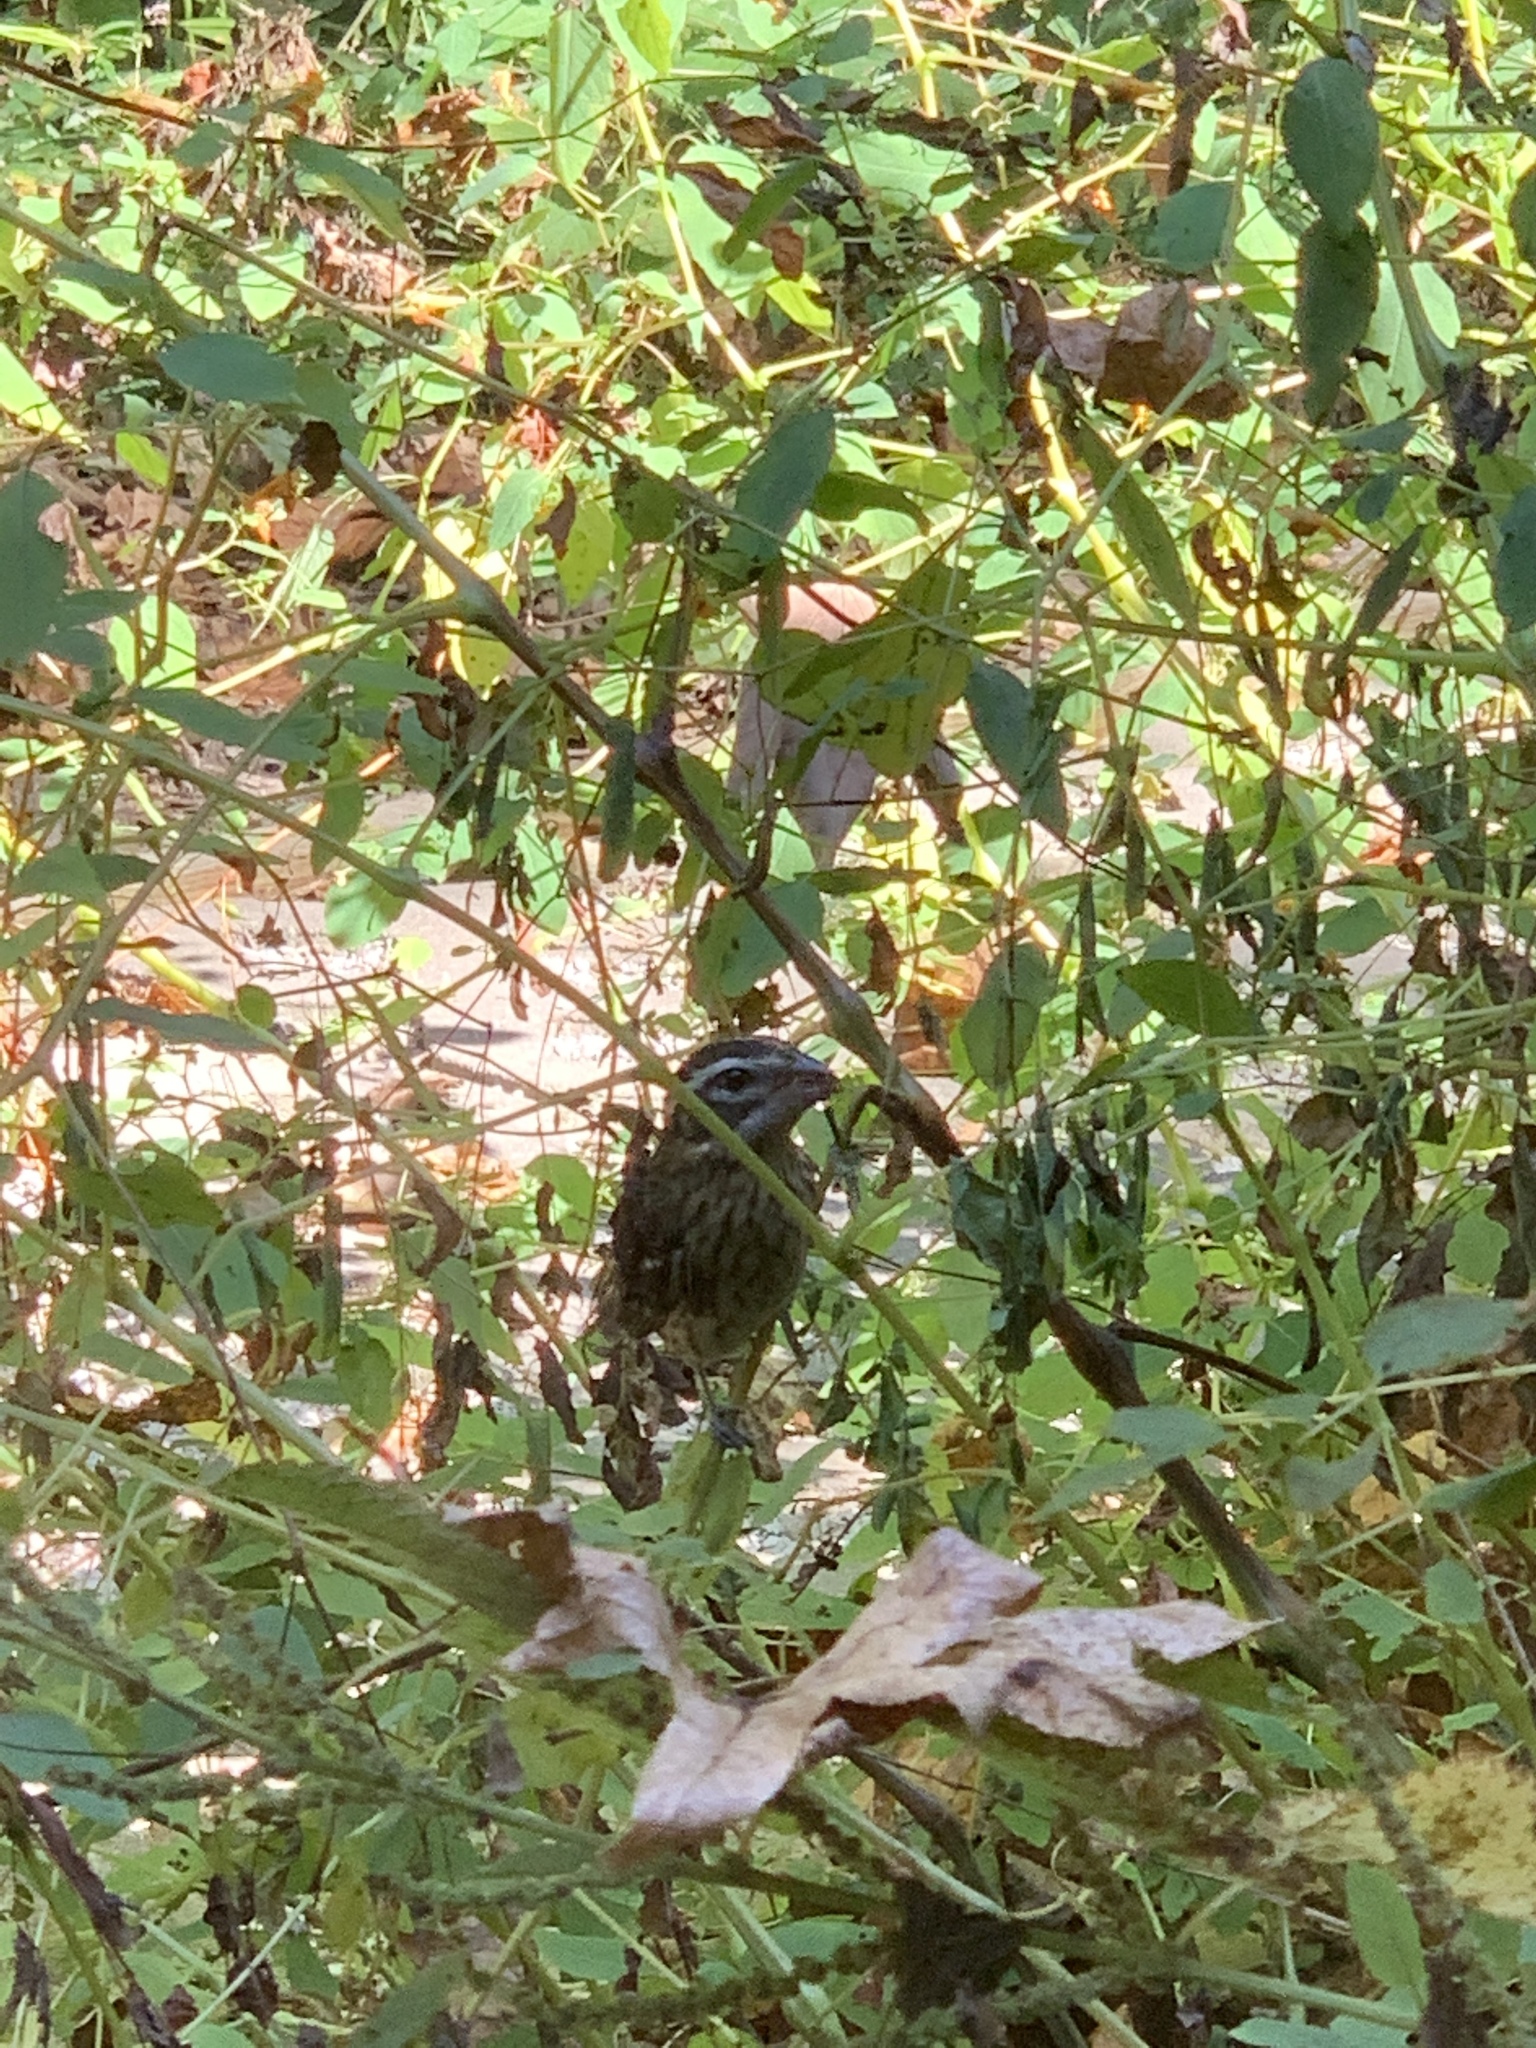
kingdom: Animalia
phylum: Chordata
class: Aves
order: Passeriformes
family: Cardinalidae
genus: Pheucticus
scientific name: Pheucticus ludovicianus
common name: Rose-breasted grosbeak
